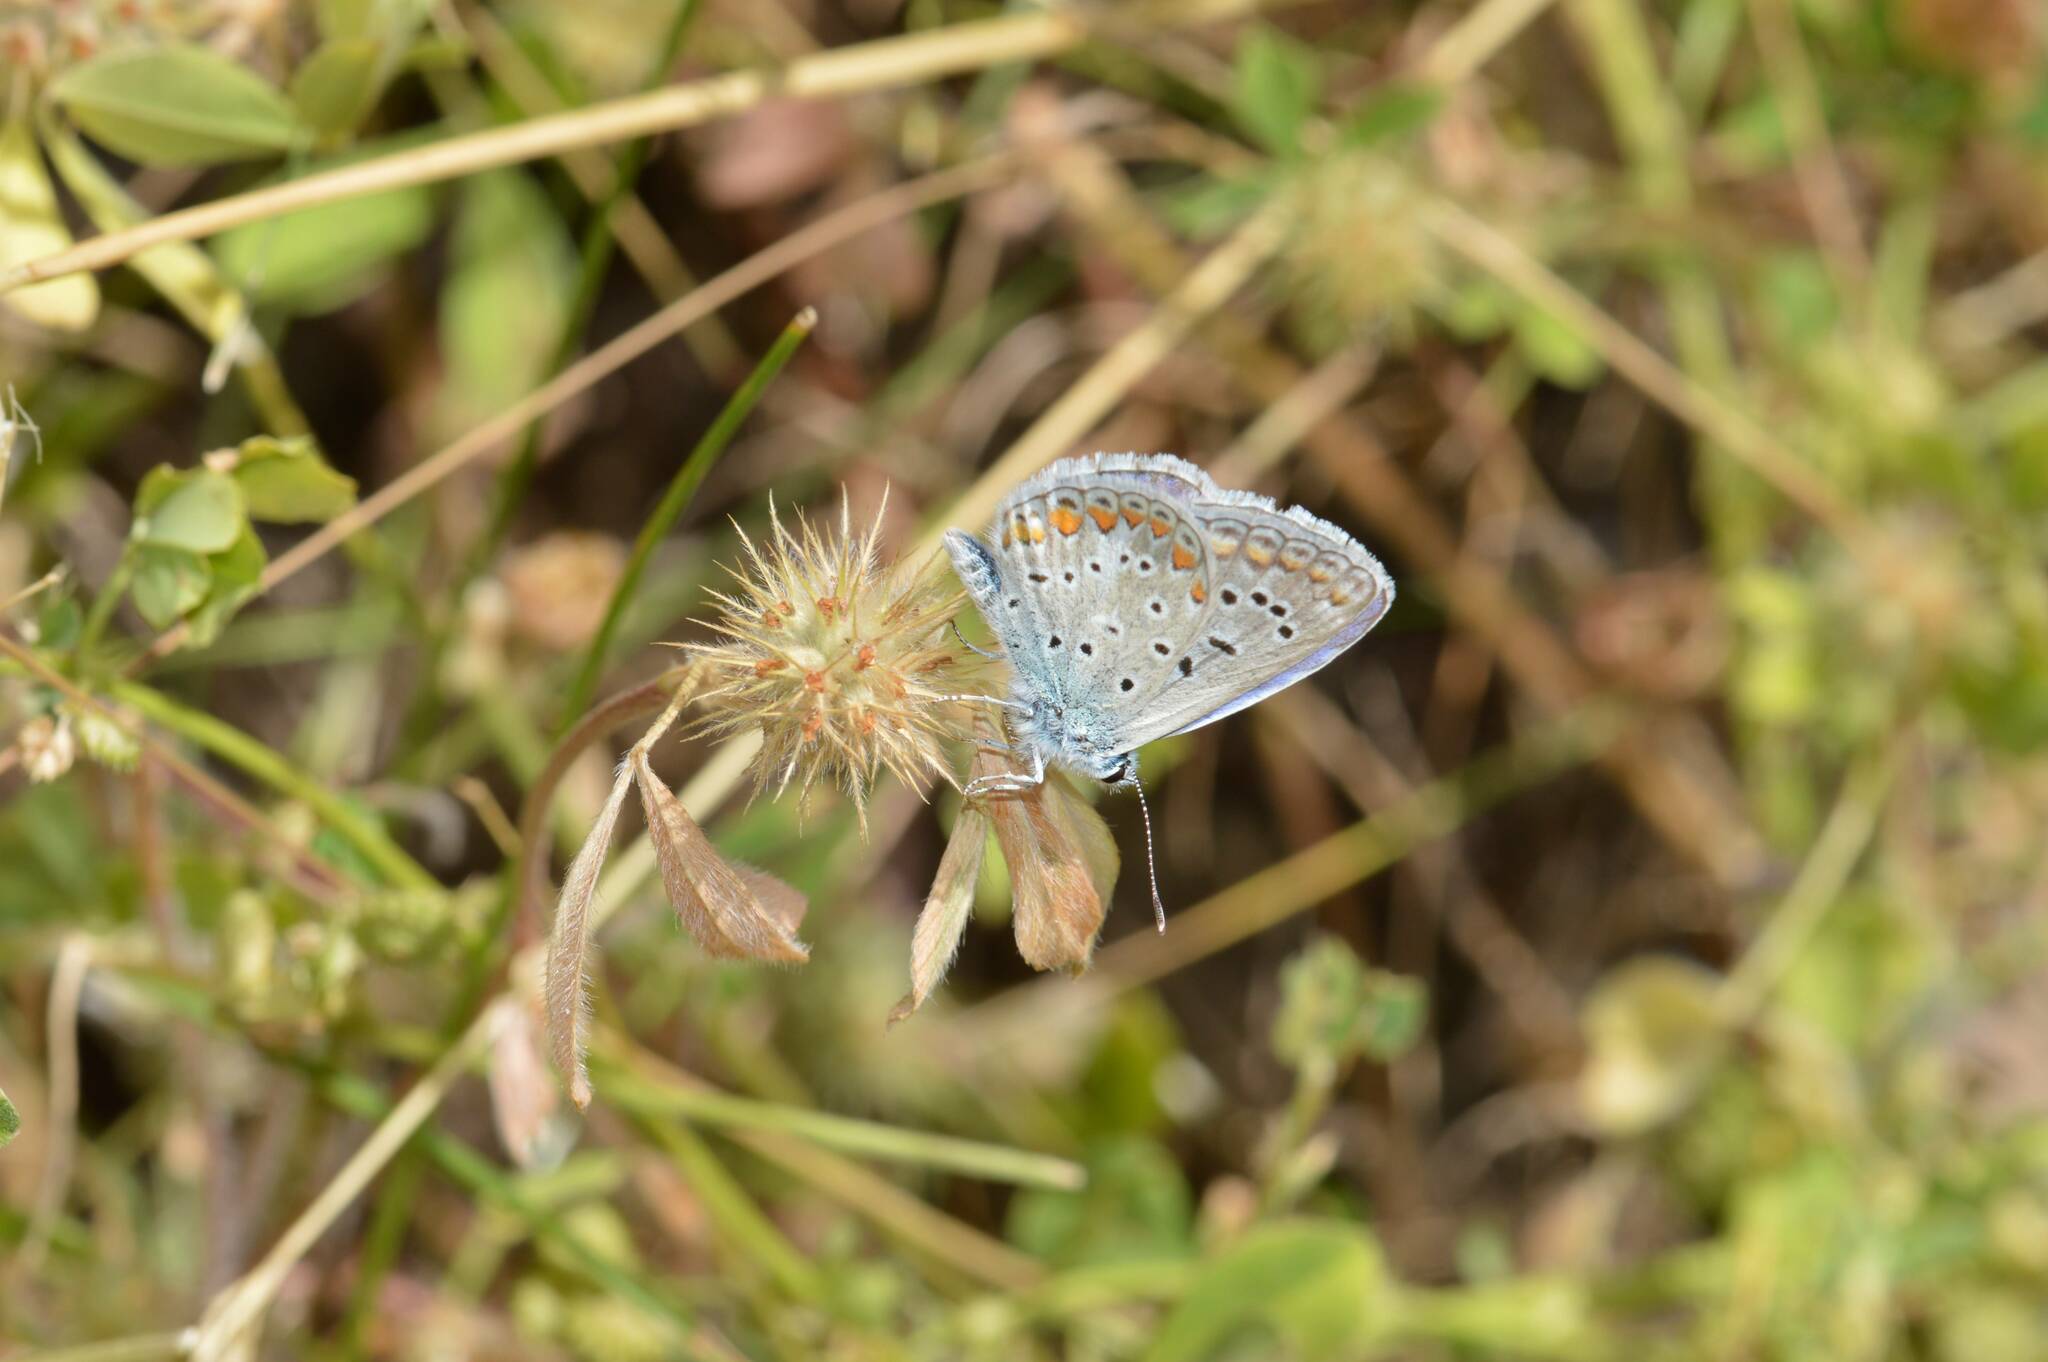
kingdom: Animalia
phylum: Arthropoda
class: Insecta
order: Lepidoptera
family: Lycaenidae
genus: Polyommatus
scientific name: Polyommatus celina
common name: Austaut's blue
